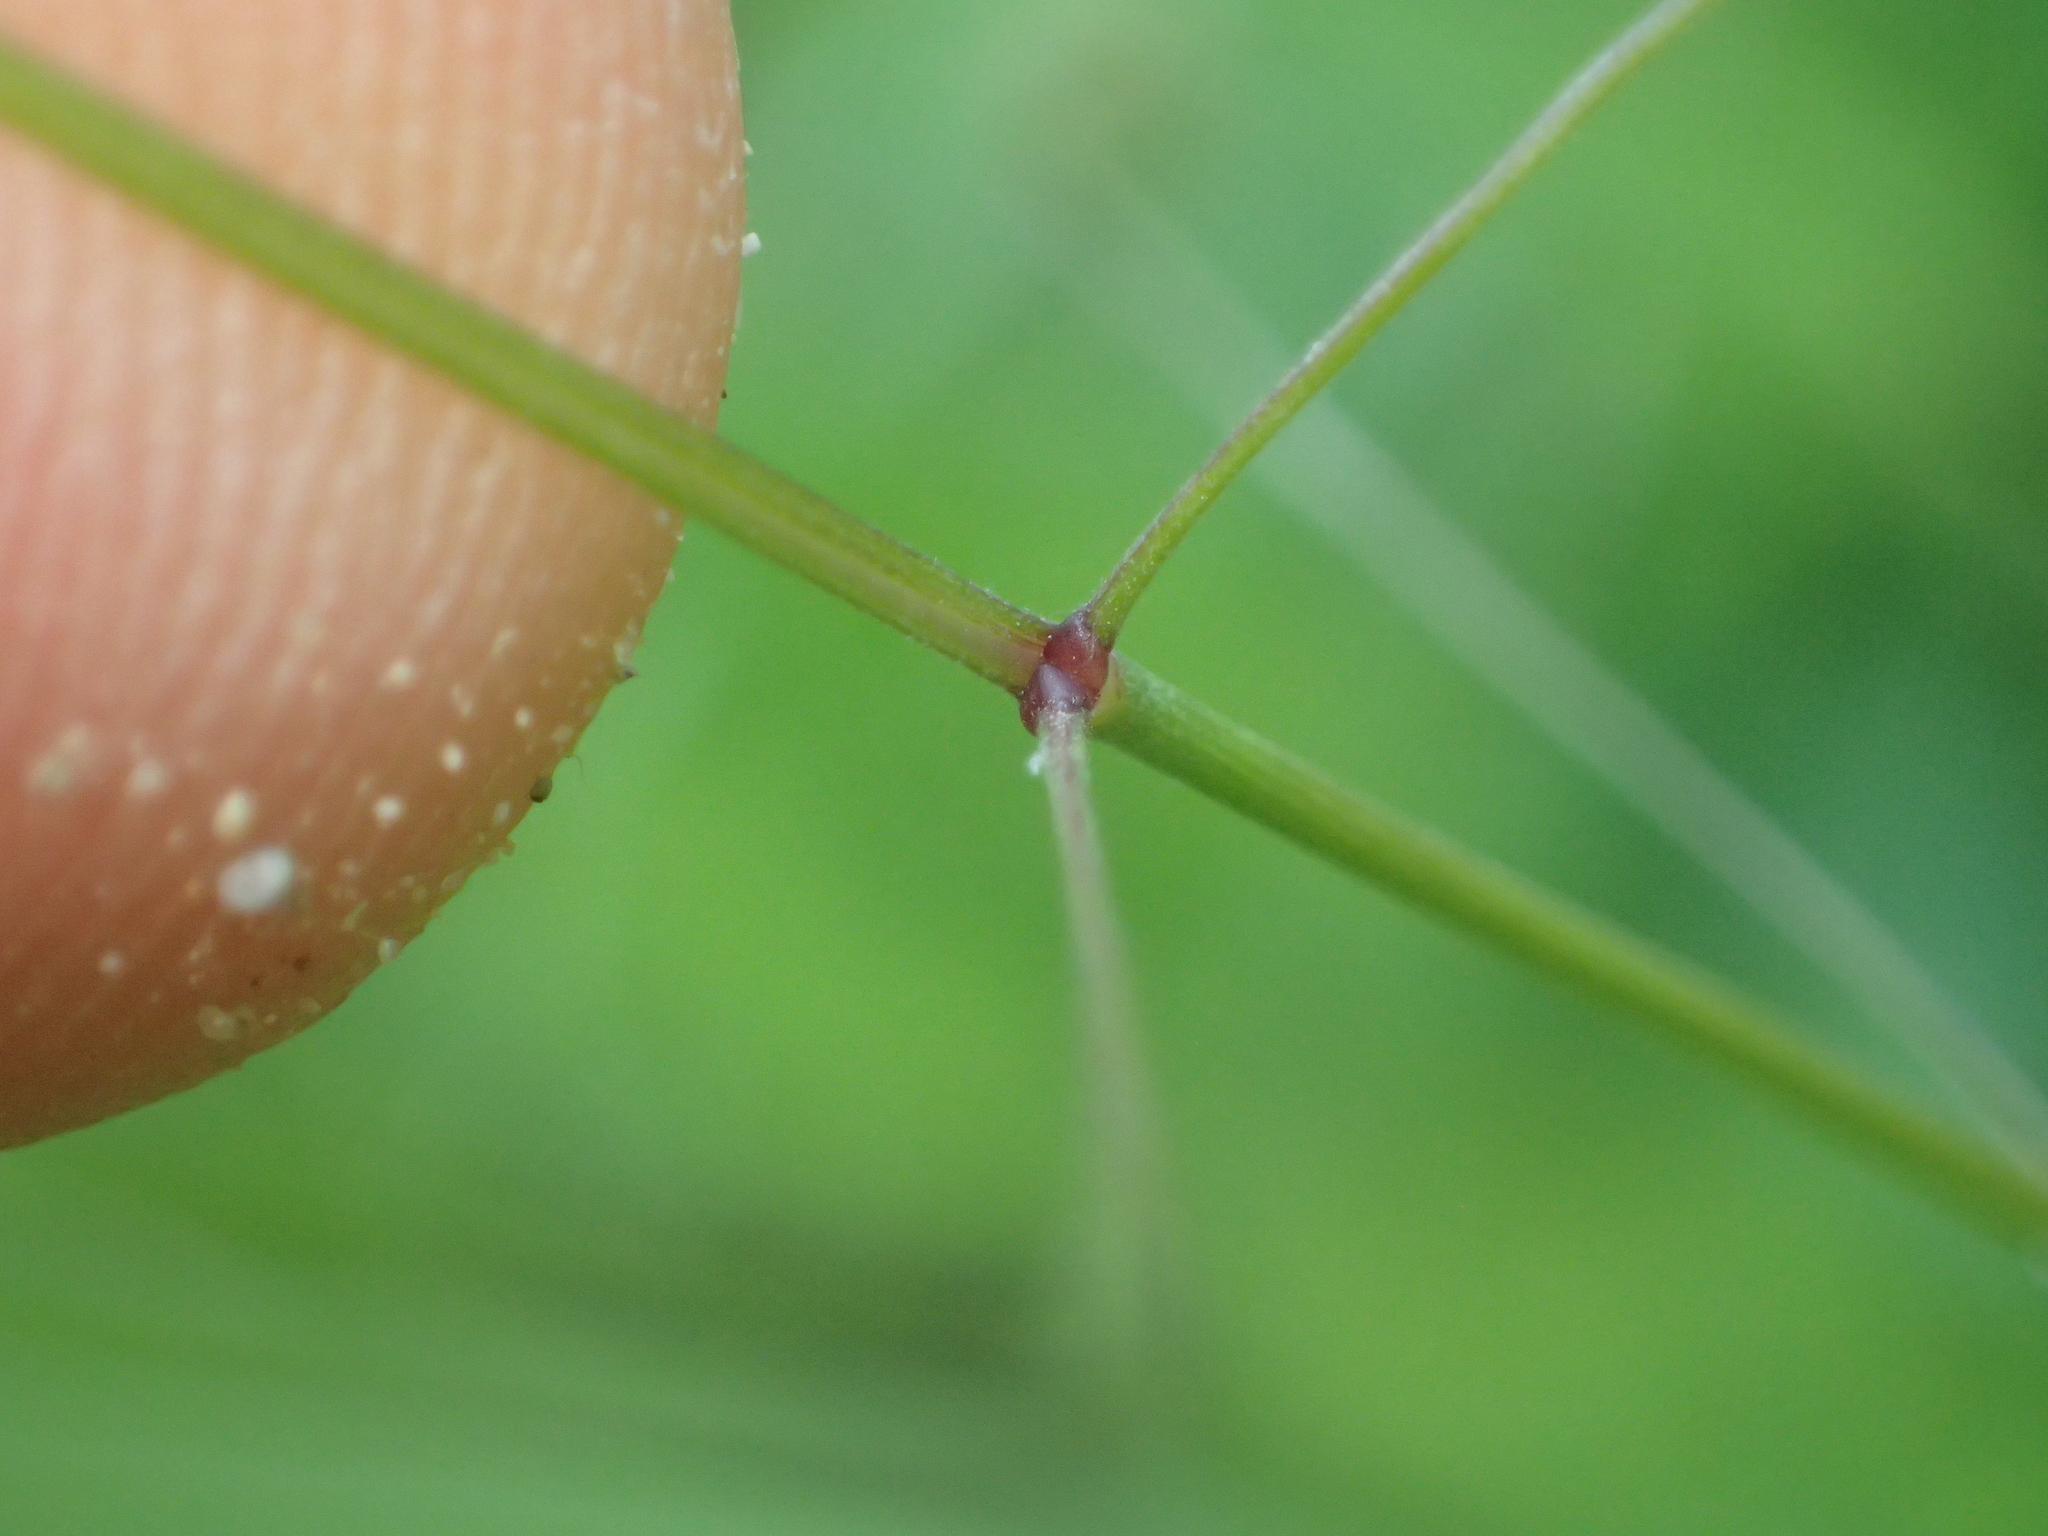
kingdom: Plantae
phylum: Tracheophyta
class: Liliopsida
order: Poales
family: Poaceae
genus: Bromus
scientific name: Bromus sterilis
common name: Poverty brome
